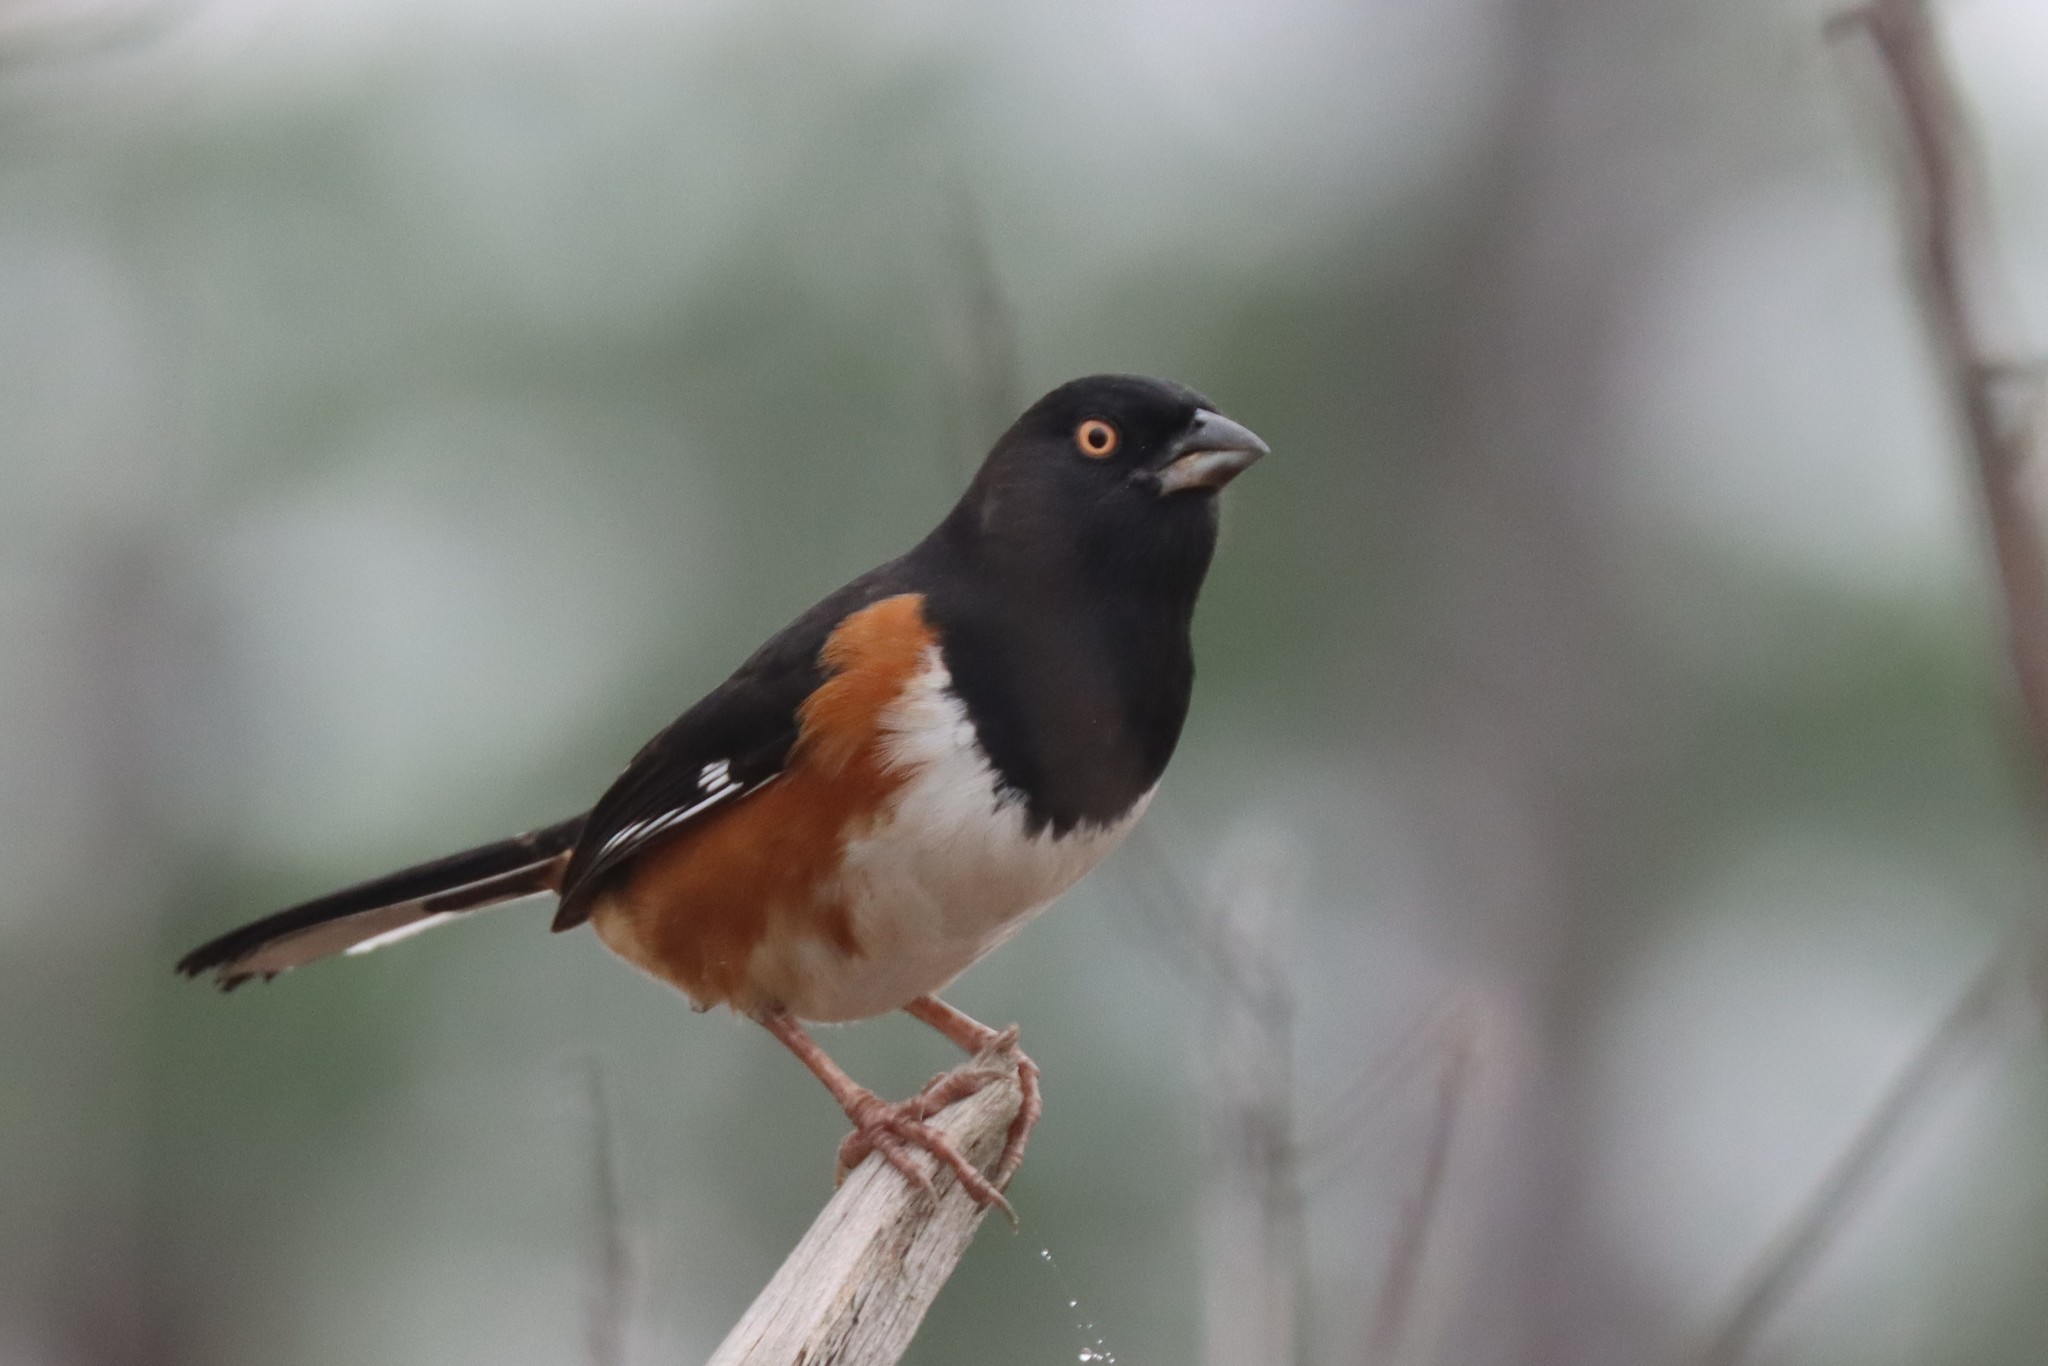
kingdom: Animalia
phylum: Chordata
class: Aves
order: Passeriformes
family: Passerellidae
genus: Pipilo
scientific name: Pipilo erythrophthalmus
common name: Eastern towhee
